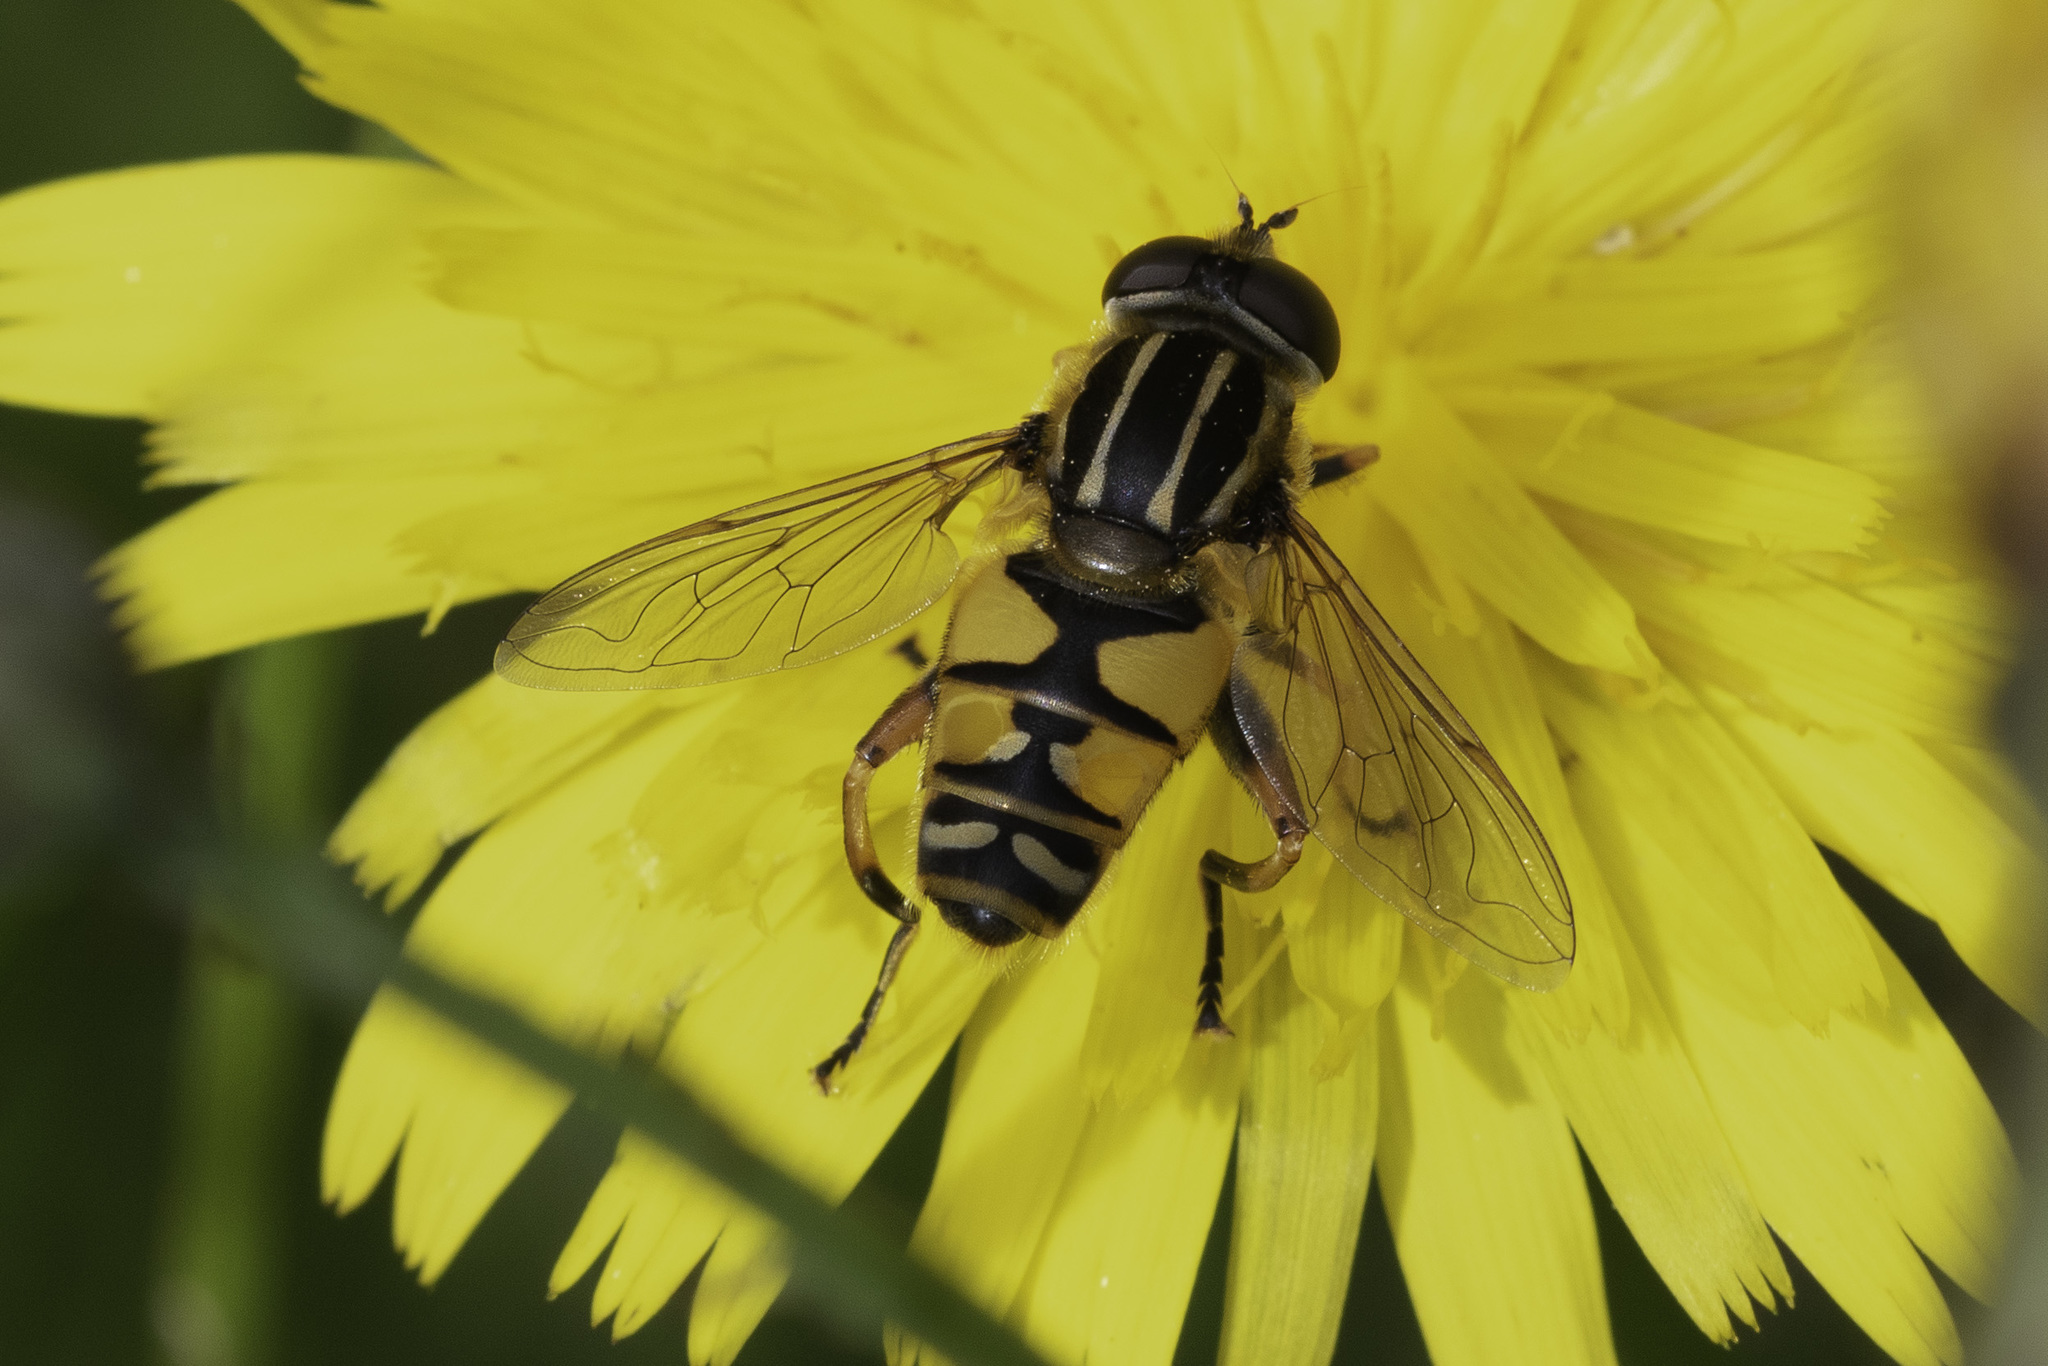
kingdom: Animalia
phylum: Arthropoda
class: Insecta
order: Diptera
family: Syrphidae
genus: Helophilus
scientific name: Helophilus pendulus
